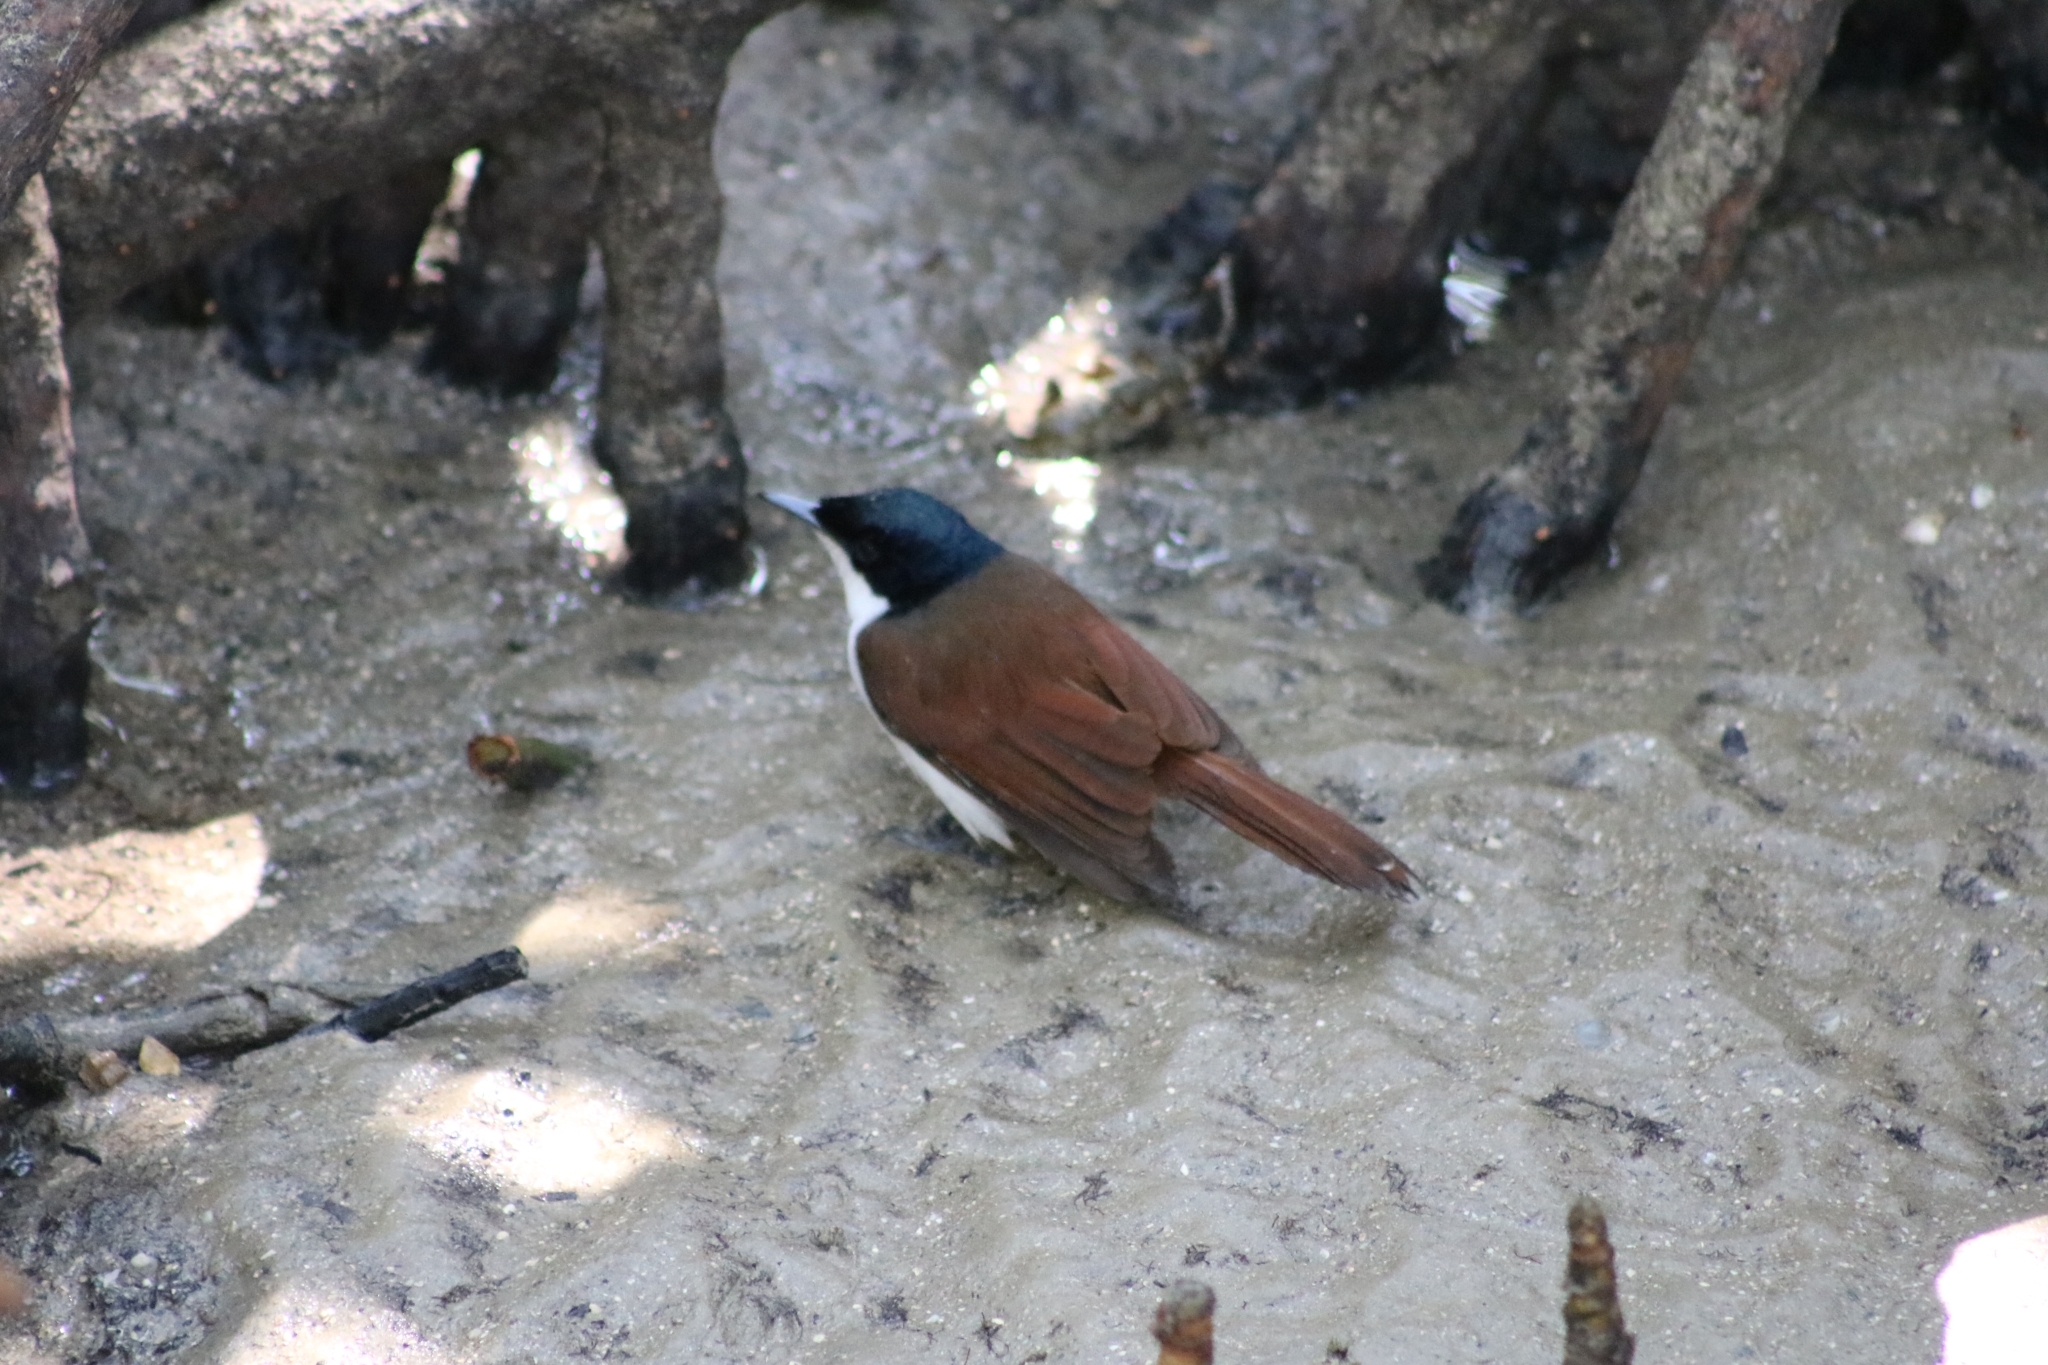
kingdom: Animalia
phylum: Chordata
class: Aves
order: Passeriformes
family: Monarchidae
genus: Myiagra
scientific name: Myiagra alecto
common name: Shining flycatcher
